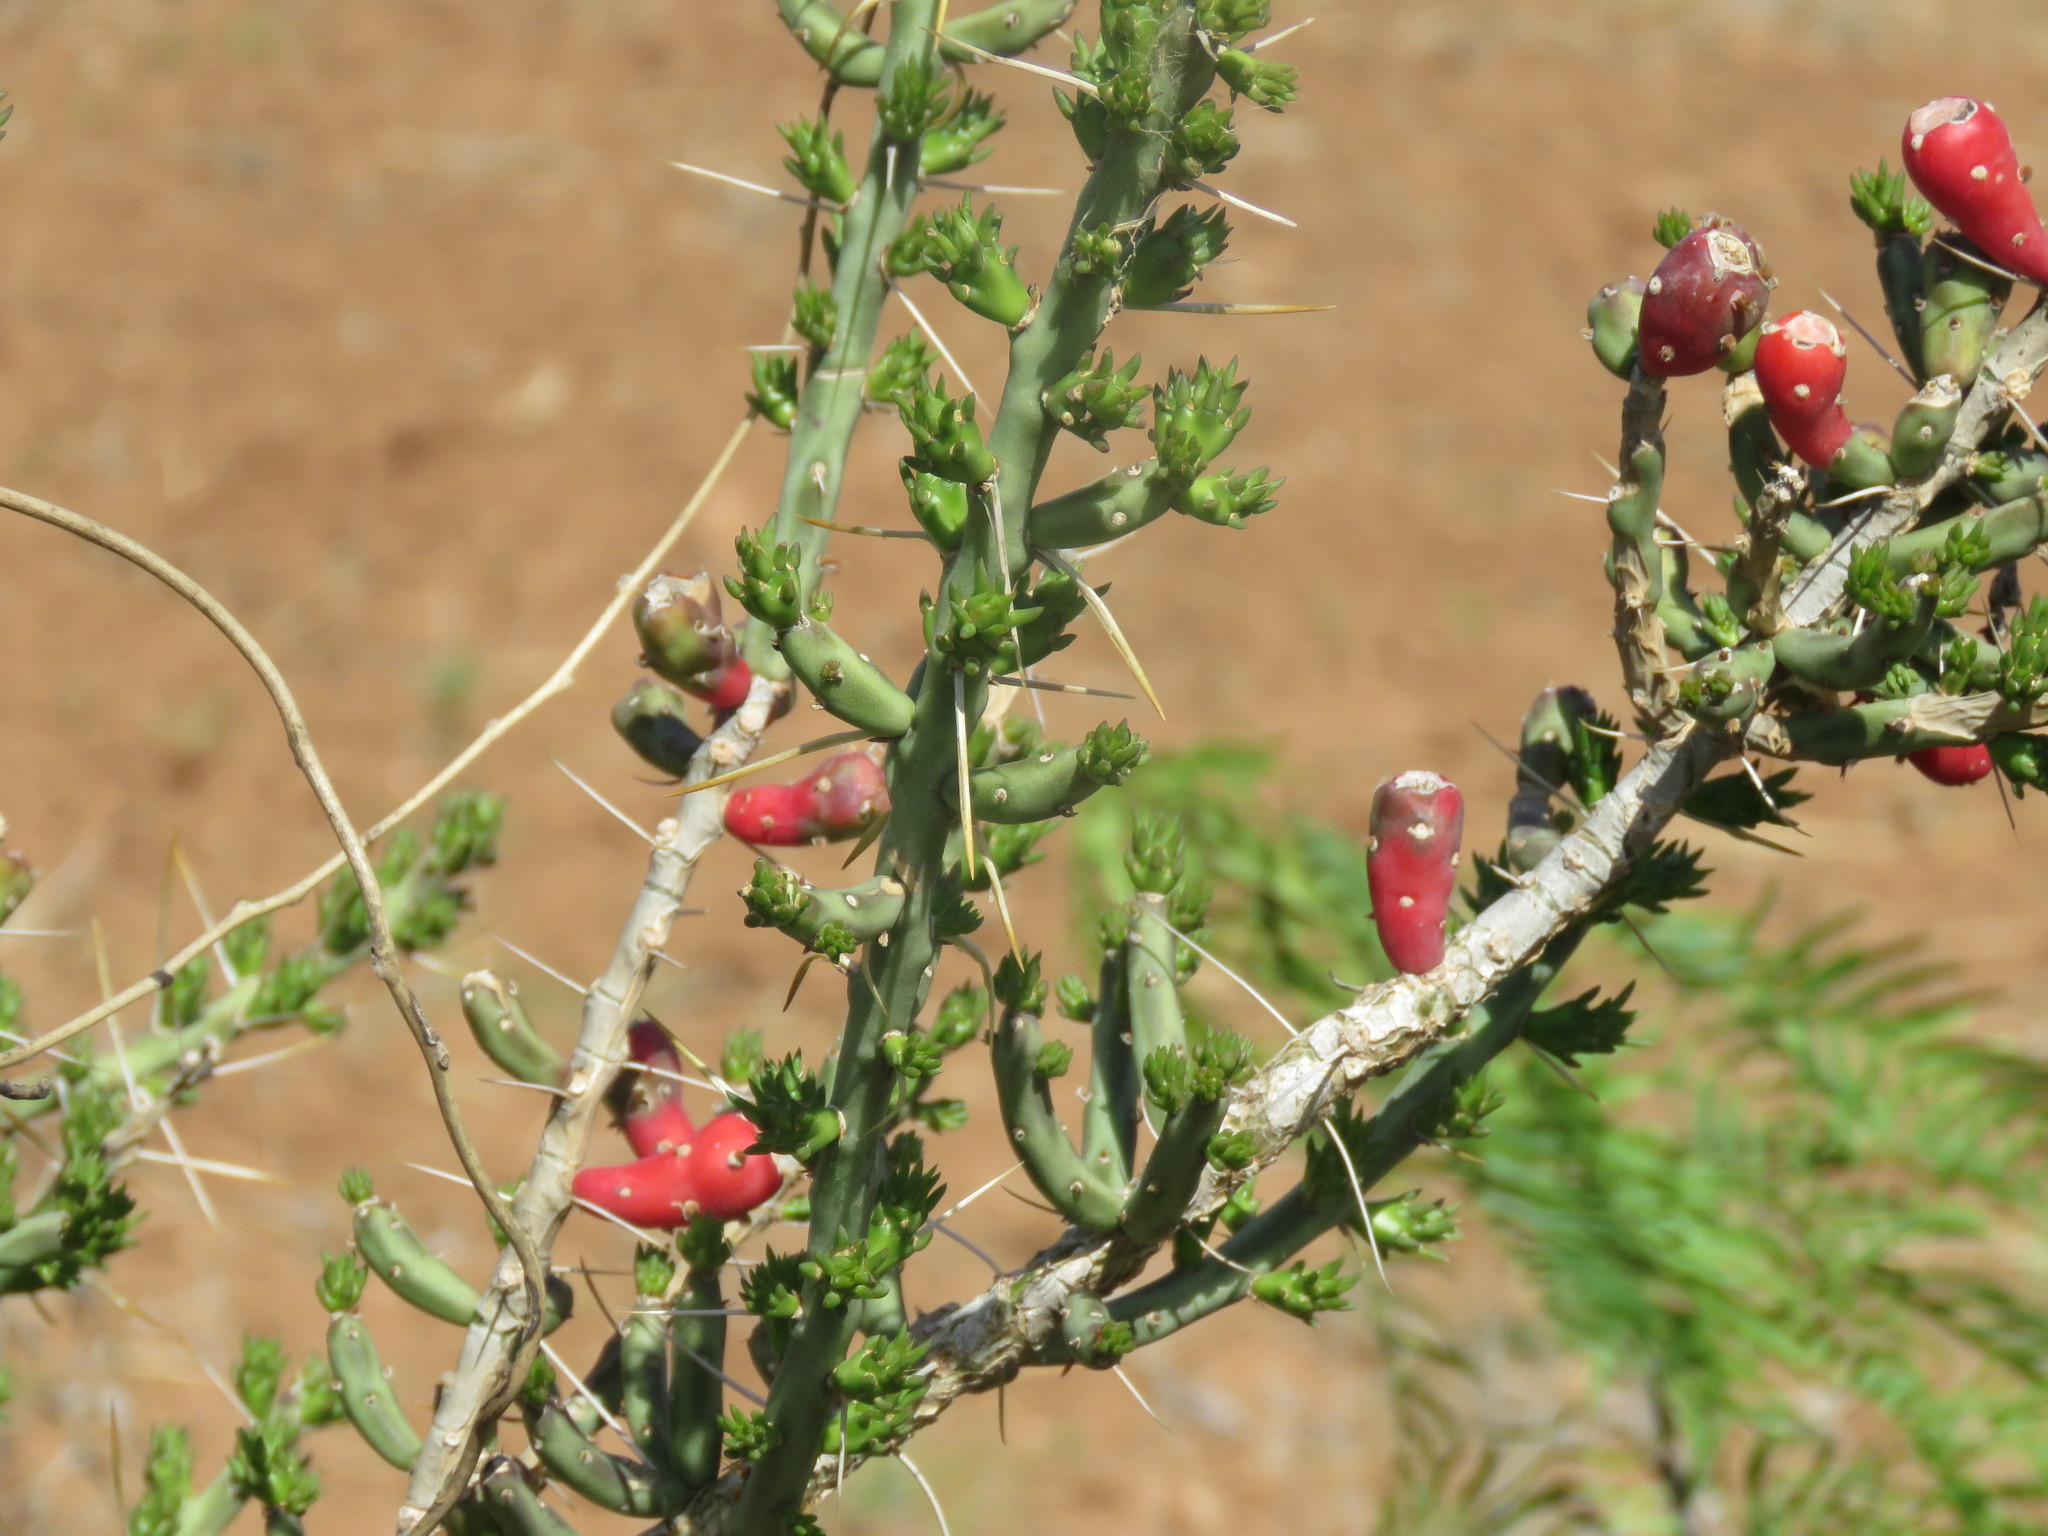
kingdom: Plantae
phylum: Tracheophyta
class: Magnoliopsida
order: Caryophyllales
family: Cactaceae
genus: Cylindropuntia
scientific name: Cylindropuntia leptocaulis
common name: Christmas cactus
